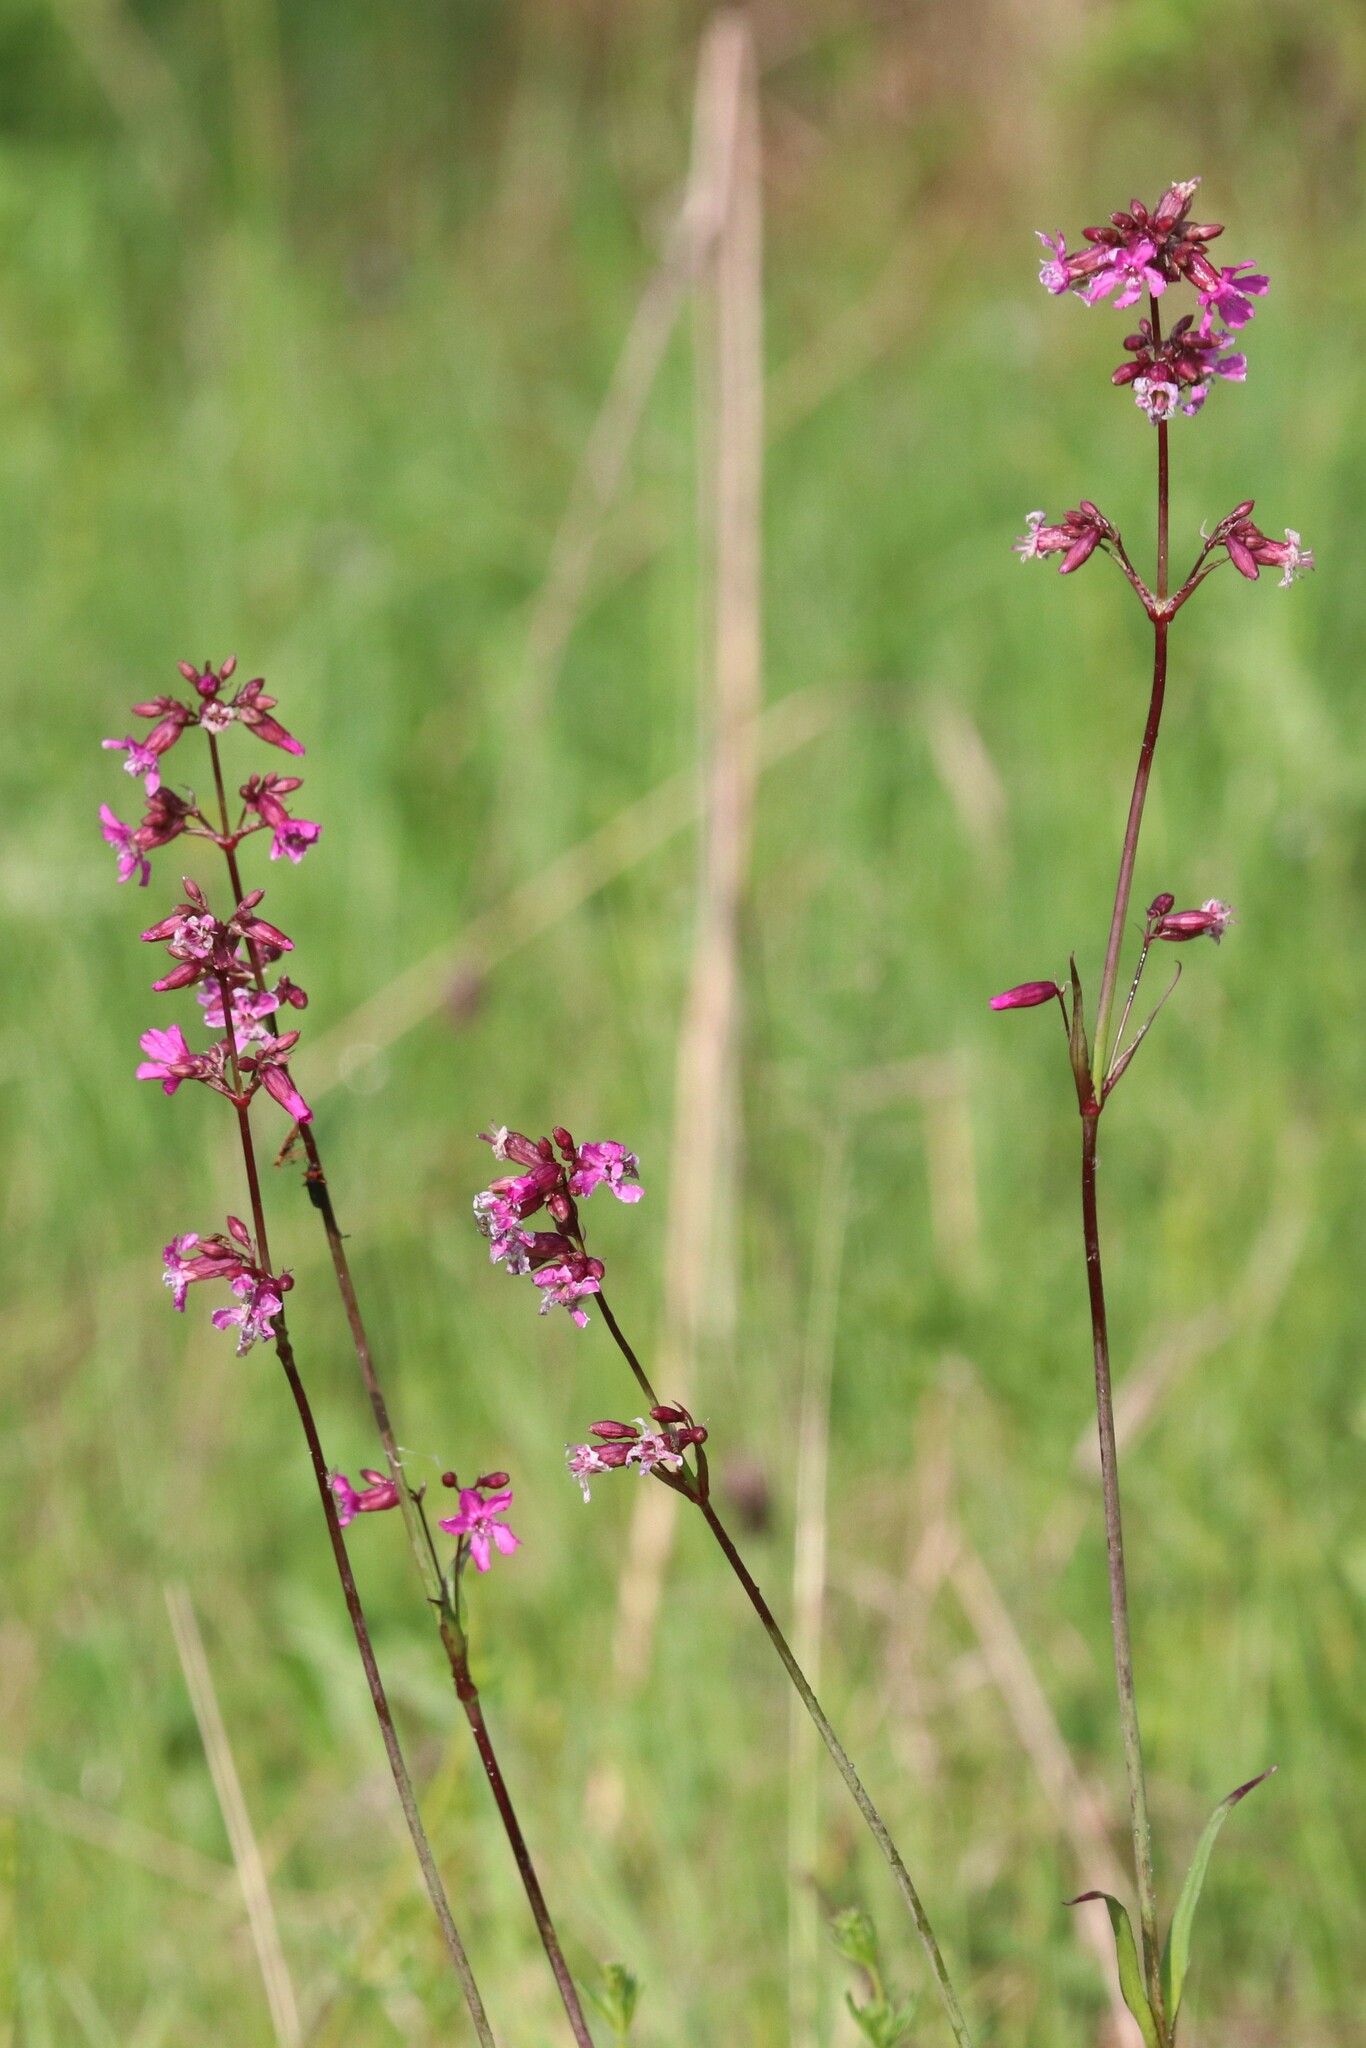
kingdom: Plantae
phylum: Tracheophyta
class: Magnoliopsida
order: Caryophyllales
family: Caryophyllaceae
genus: Viscaria
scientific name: Viscaria vulgaris
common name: Clammy campion
